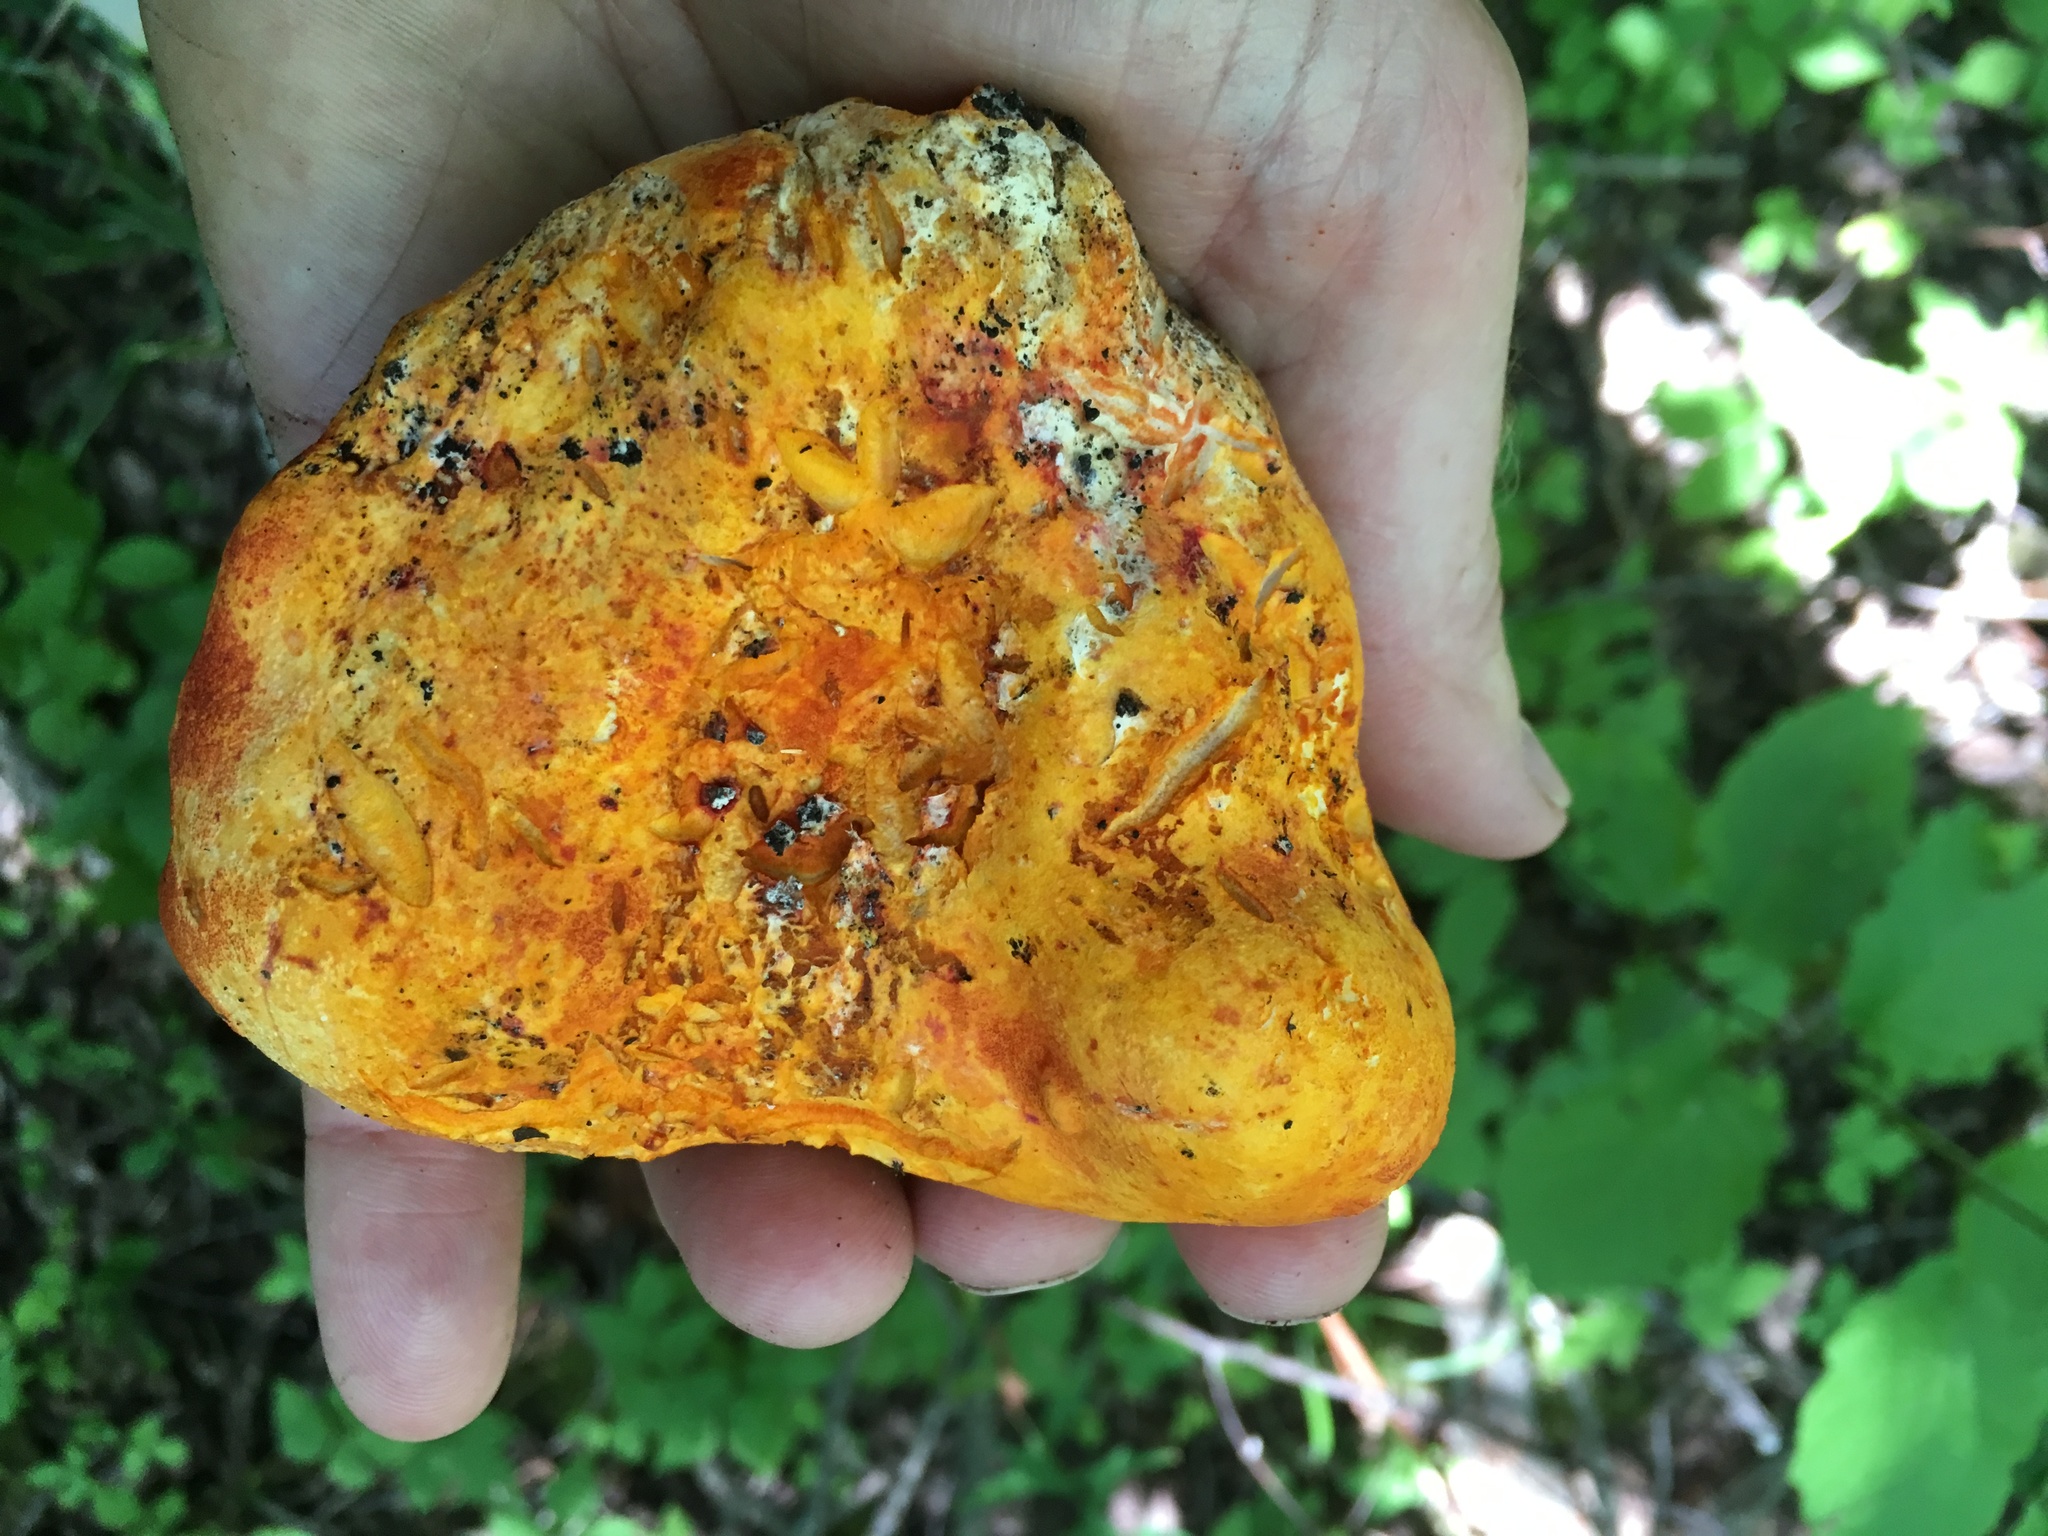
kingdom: Fungi
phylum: Ascomycota
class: Sordariomycetes
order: Hypocreales
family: Hypocreaceae
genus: Hypomyces
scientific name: Hypomyces lactifluorum
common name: Lobster mushroom
